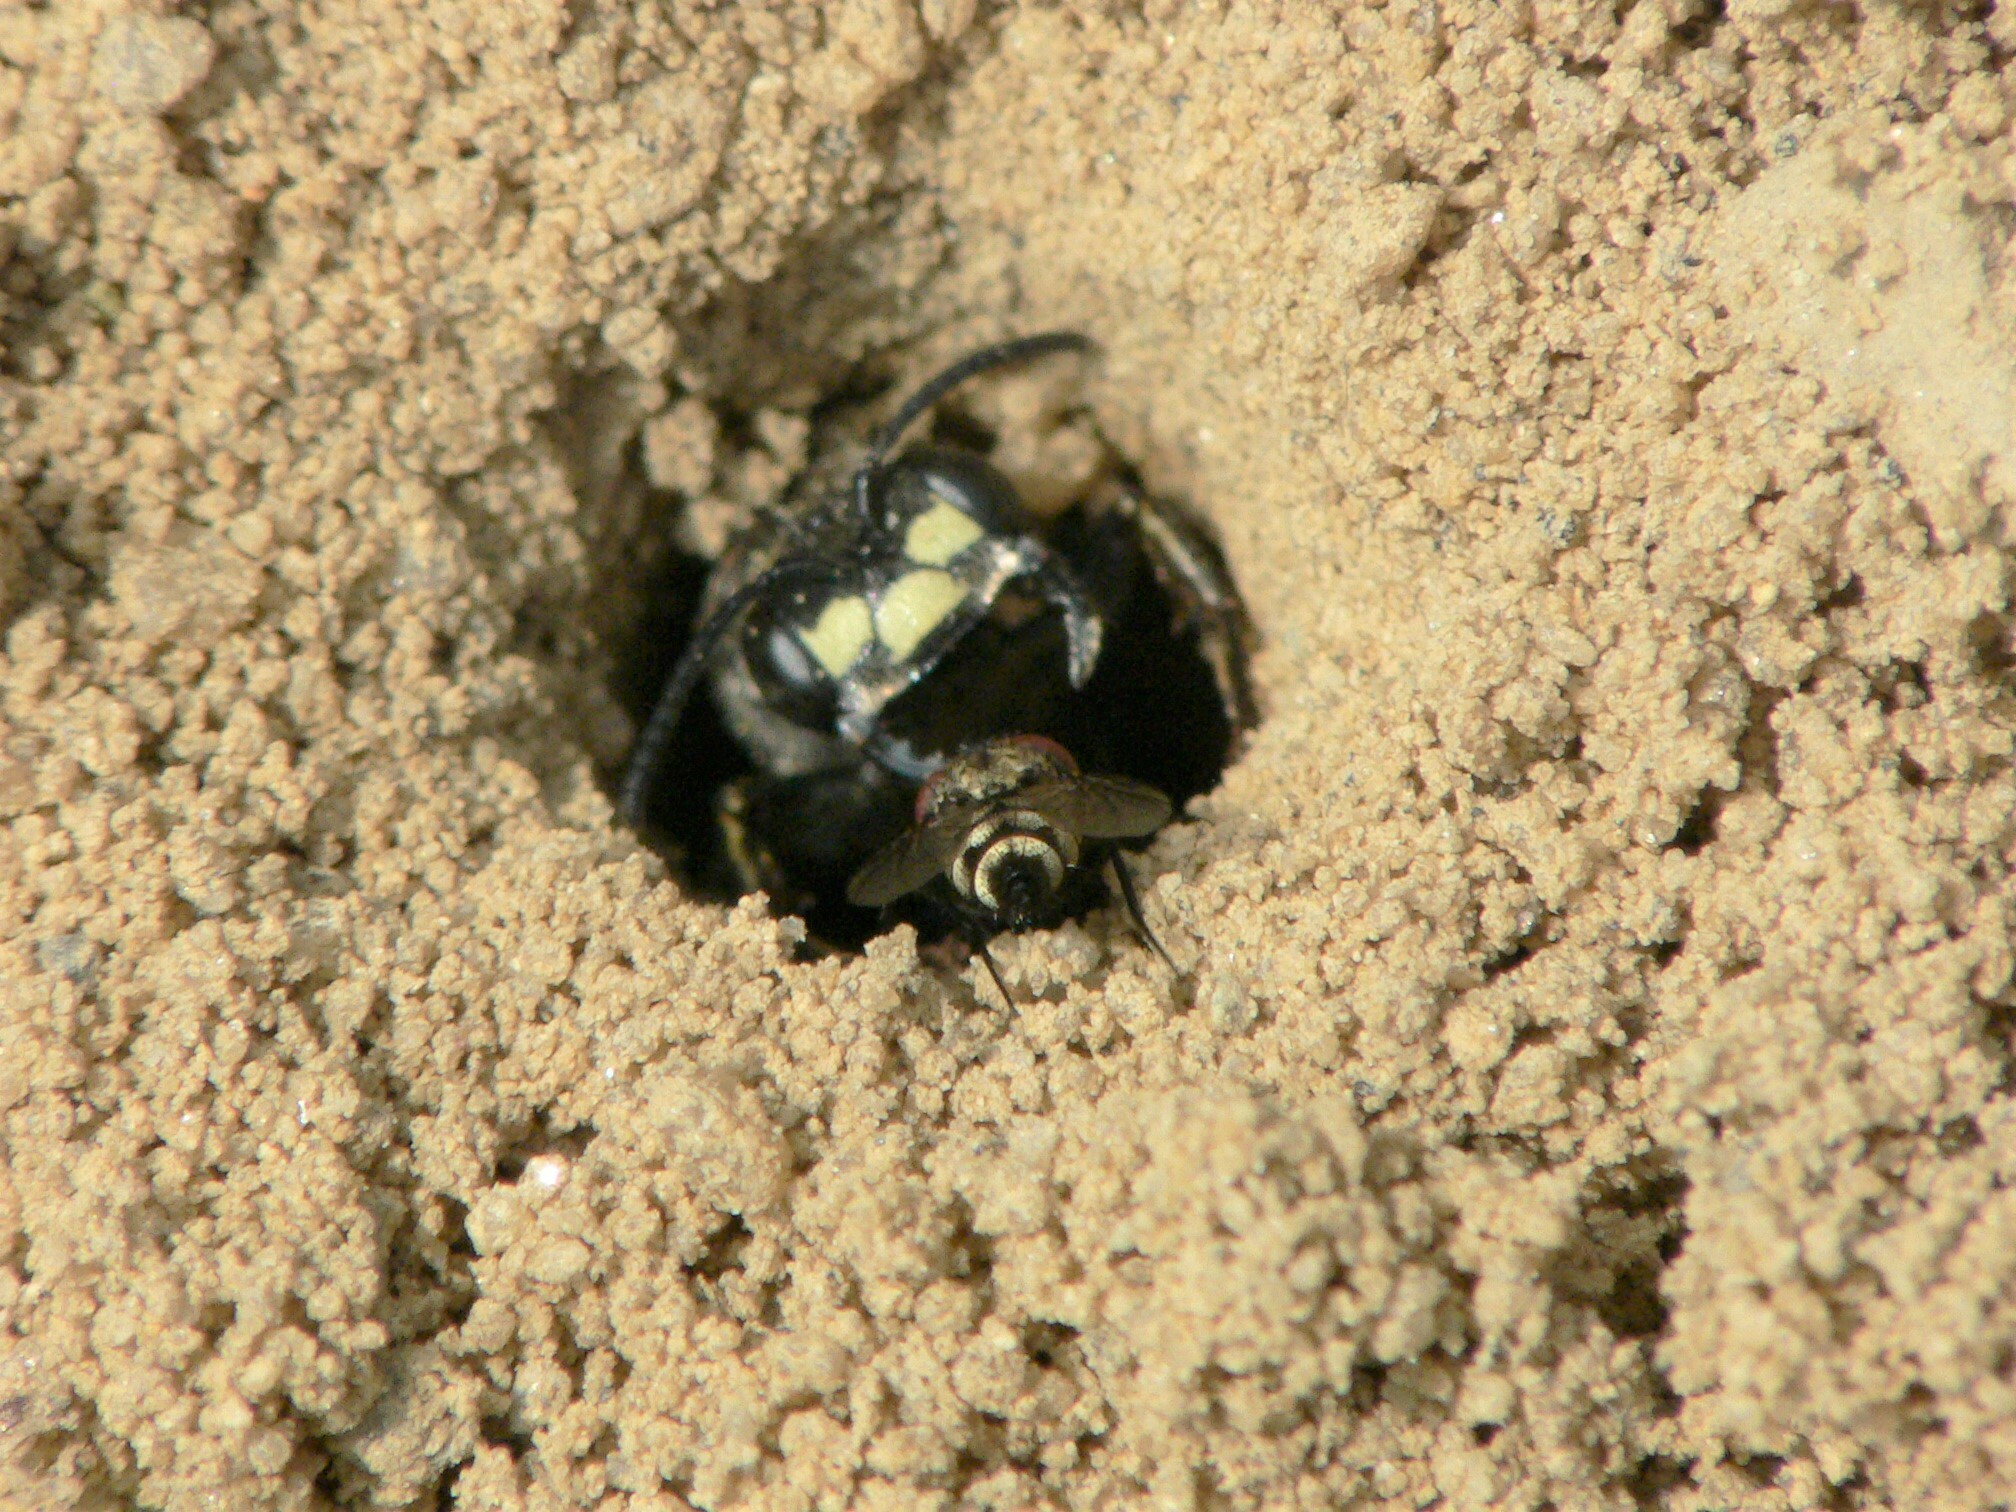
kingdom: Animalia
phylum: Arthropoda
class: Insecta
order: Hymenoptera
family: Crabronidae
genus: Cerceris
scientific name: Cerceris fumipennis
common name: Smokey-winged beetle bandit wasp
